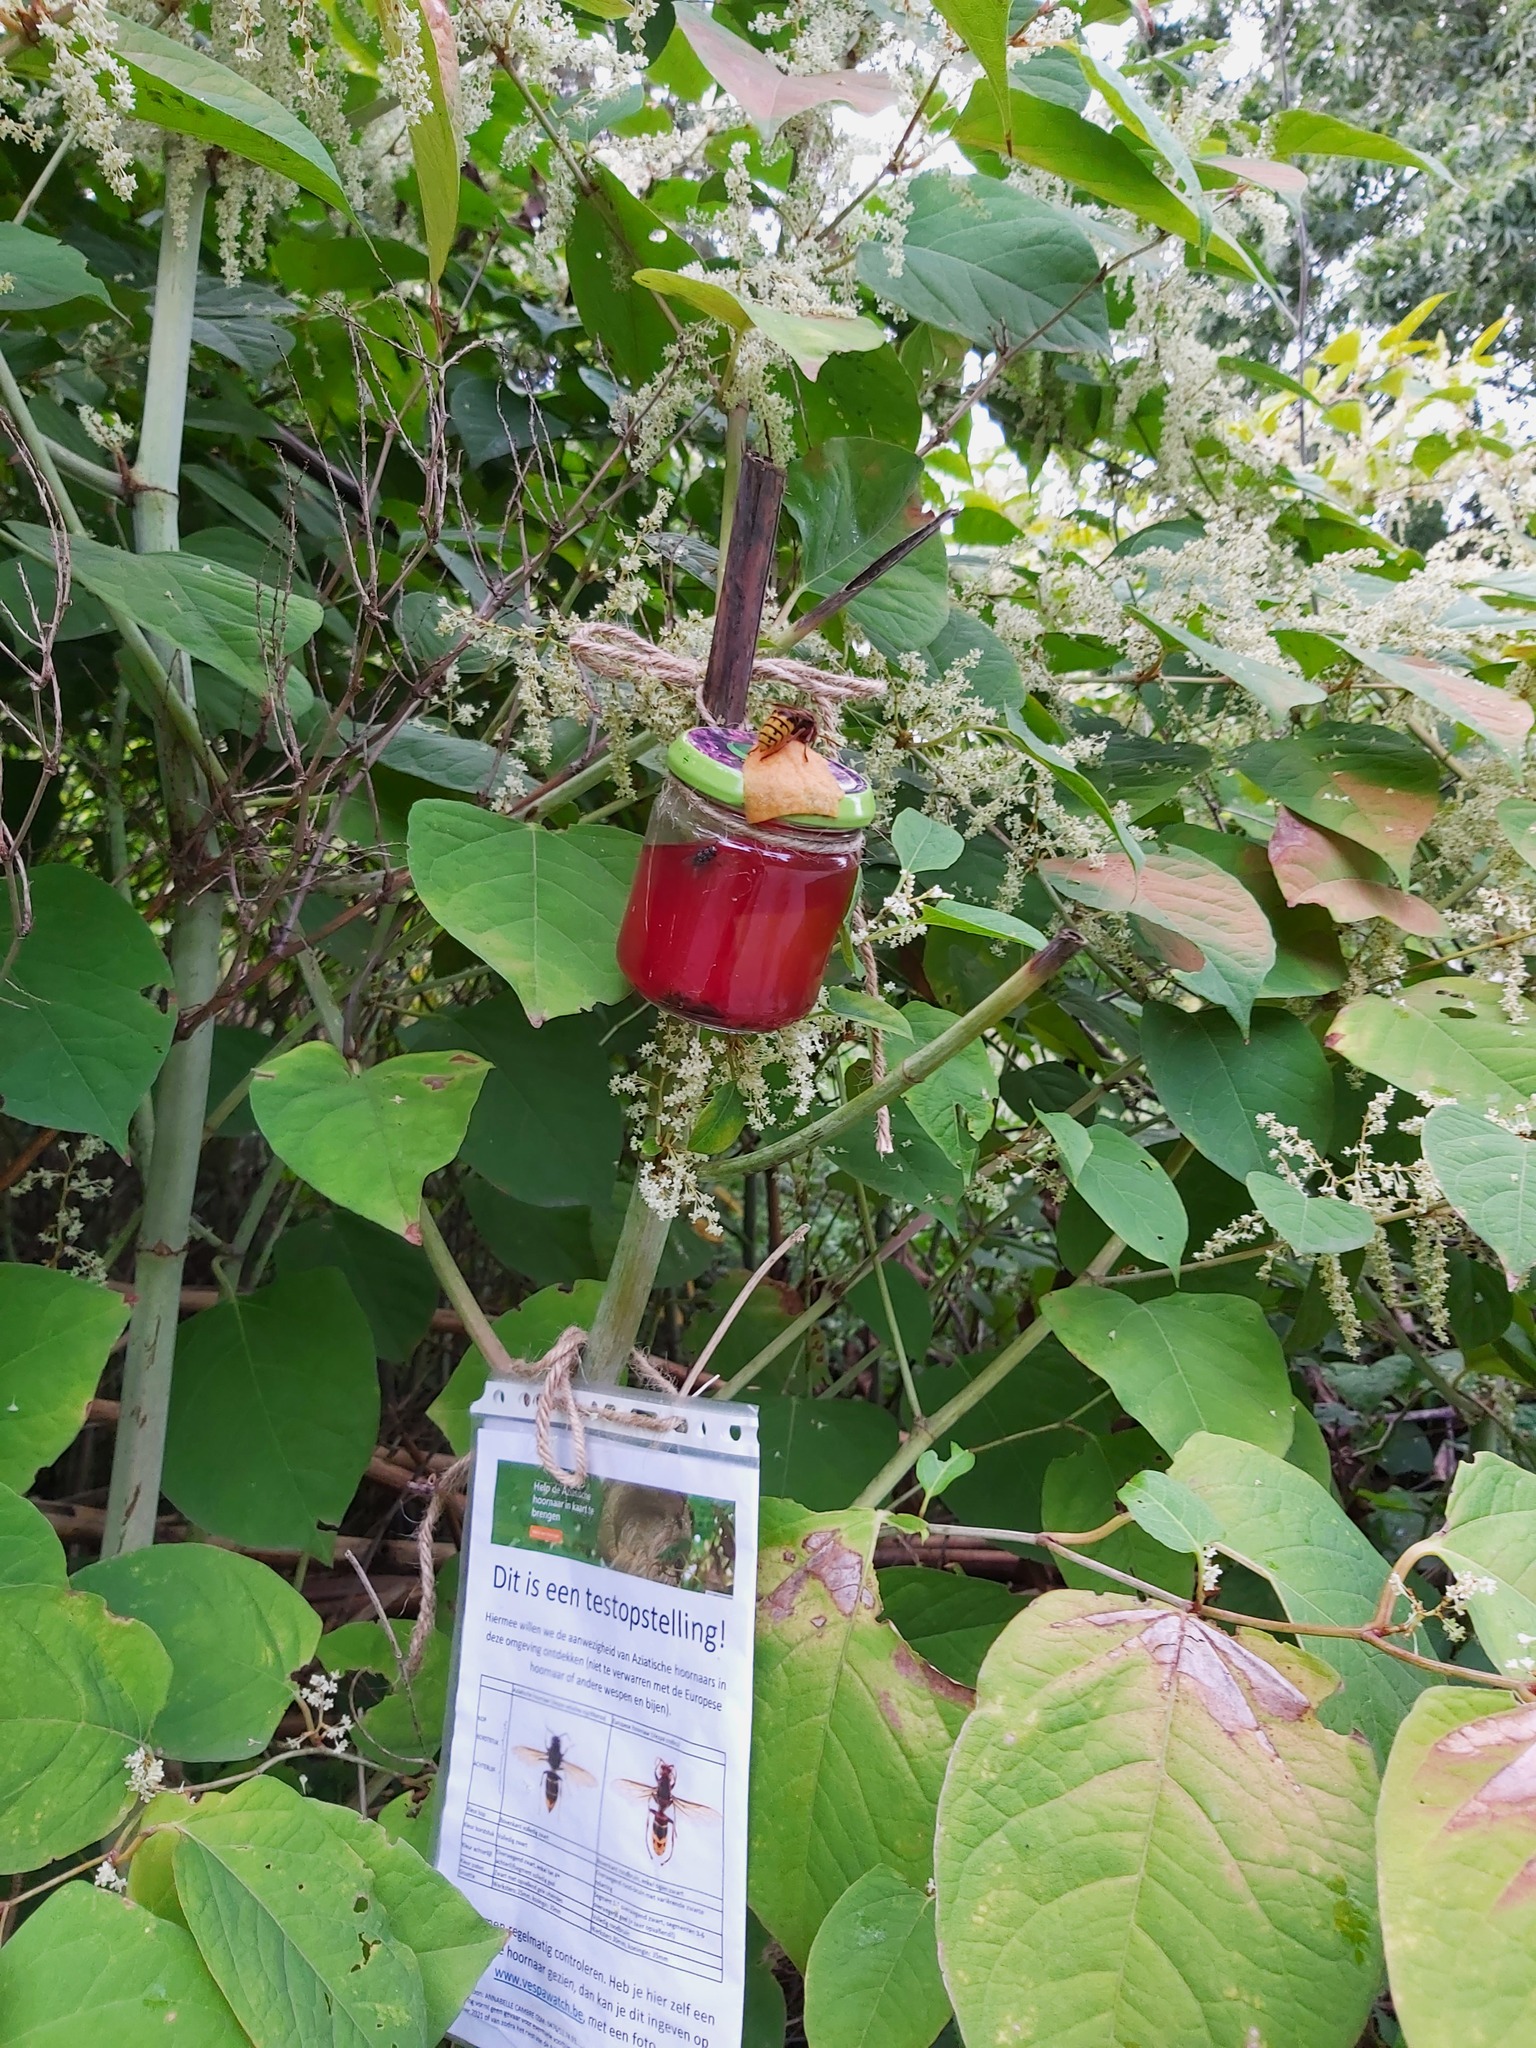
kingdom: Animalia
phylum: Arthropoda
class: Insecta
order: Hymenoptera
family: Vespidae
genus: Vespa
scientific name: Vespa crabro
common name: Hornet
